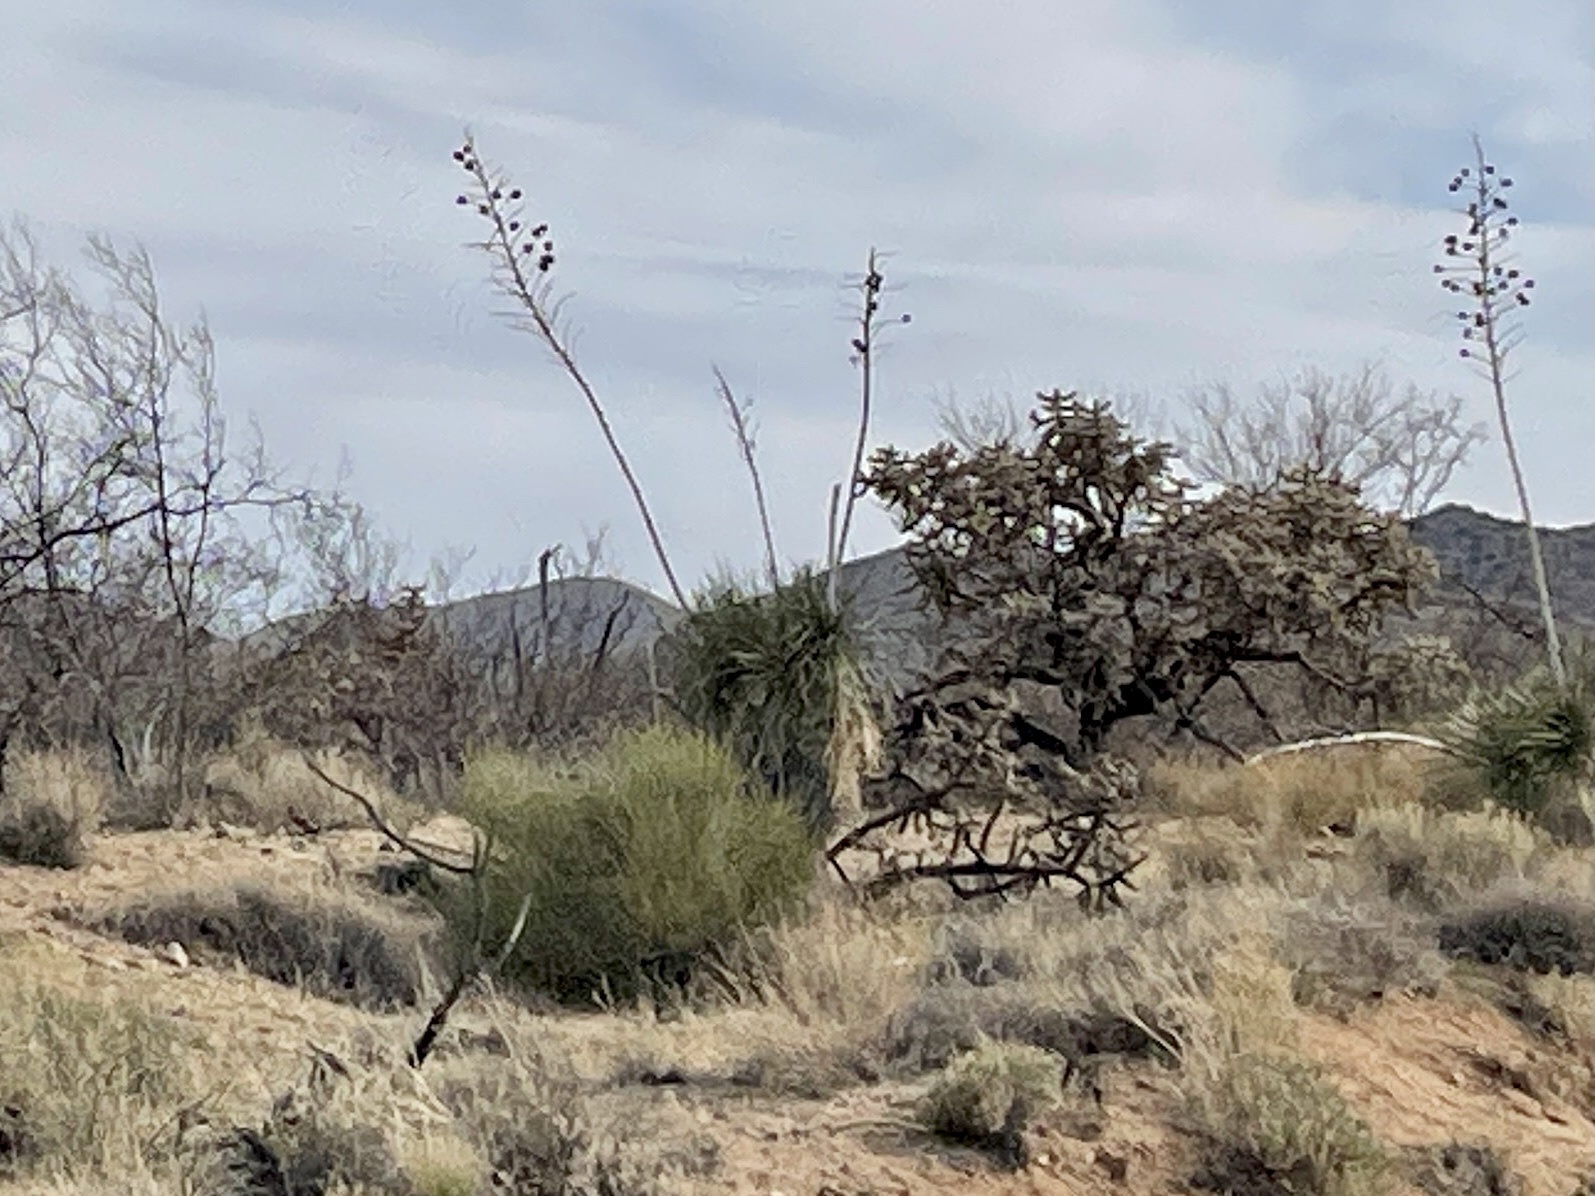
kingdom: Plantae
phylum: Tracheophyta
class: Liliopsida
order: Asparagales
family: Asparagaceae
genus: Yucca
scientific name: Yucca elata
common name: Palmella
